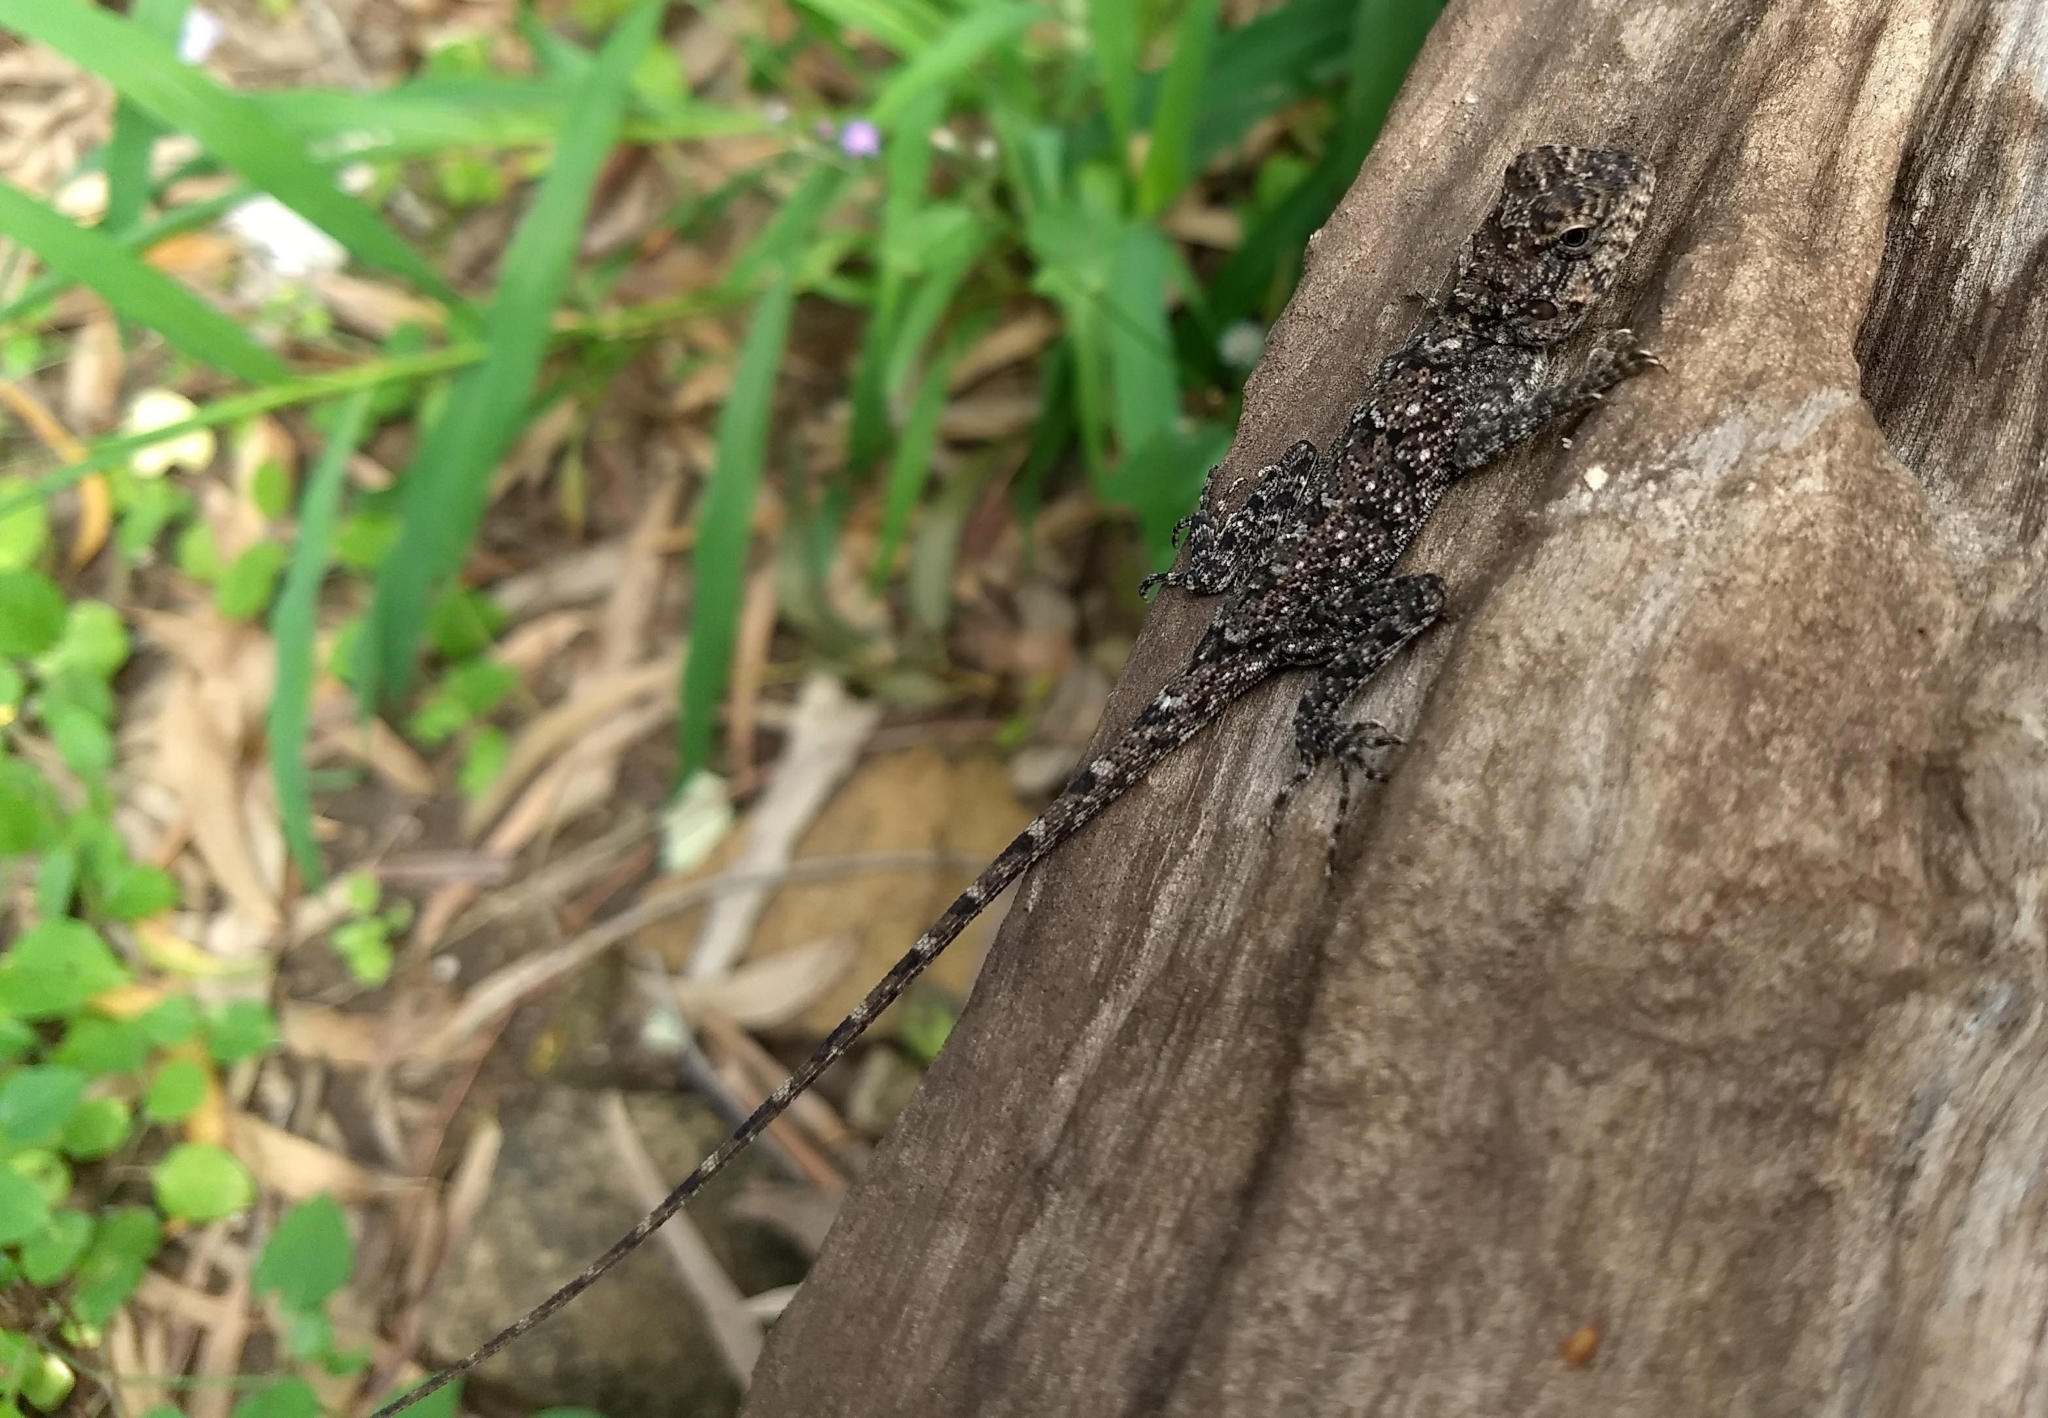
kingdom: Animalia
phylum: Chordata
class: Squamata
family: Agamidae
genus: Psammophilus
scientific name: Psammophilus dorsalis
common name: South indian rock agama
